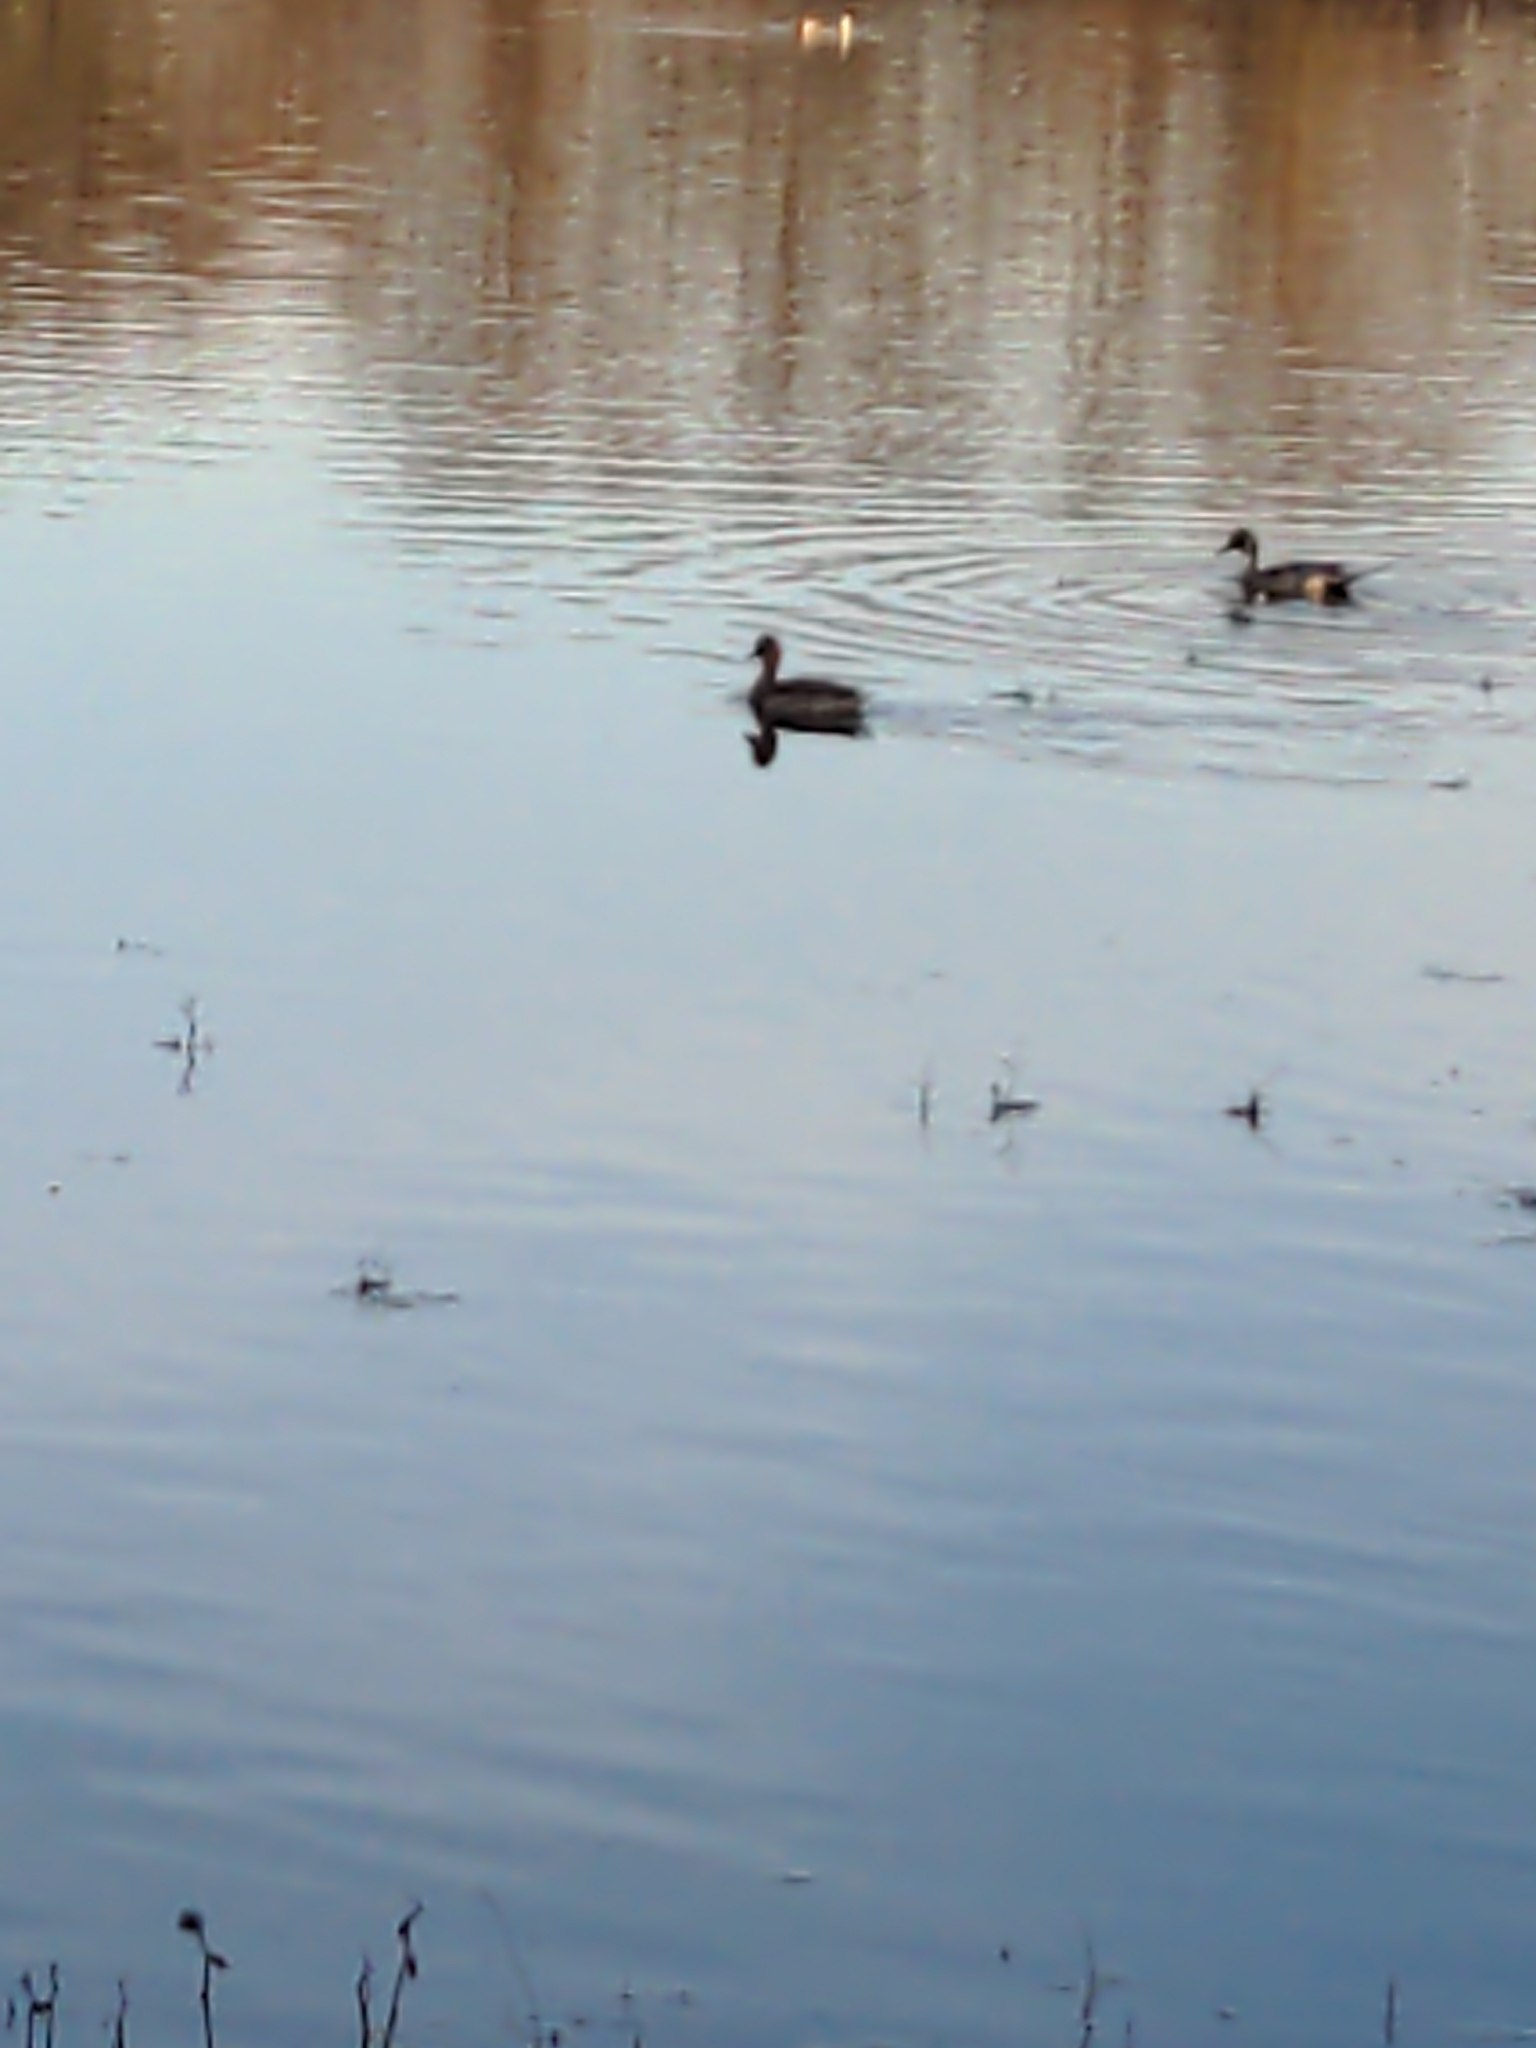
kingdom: Animalia
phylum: Chordata
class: Aves
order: Anseriformes
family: Anatidae
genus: Anas
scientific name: Anas acuta
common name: Northern pintail
